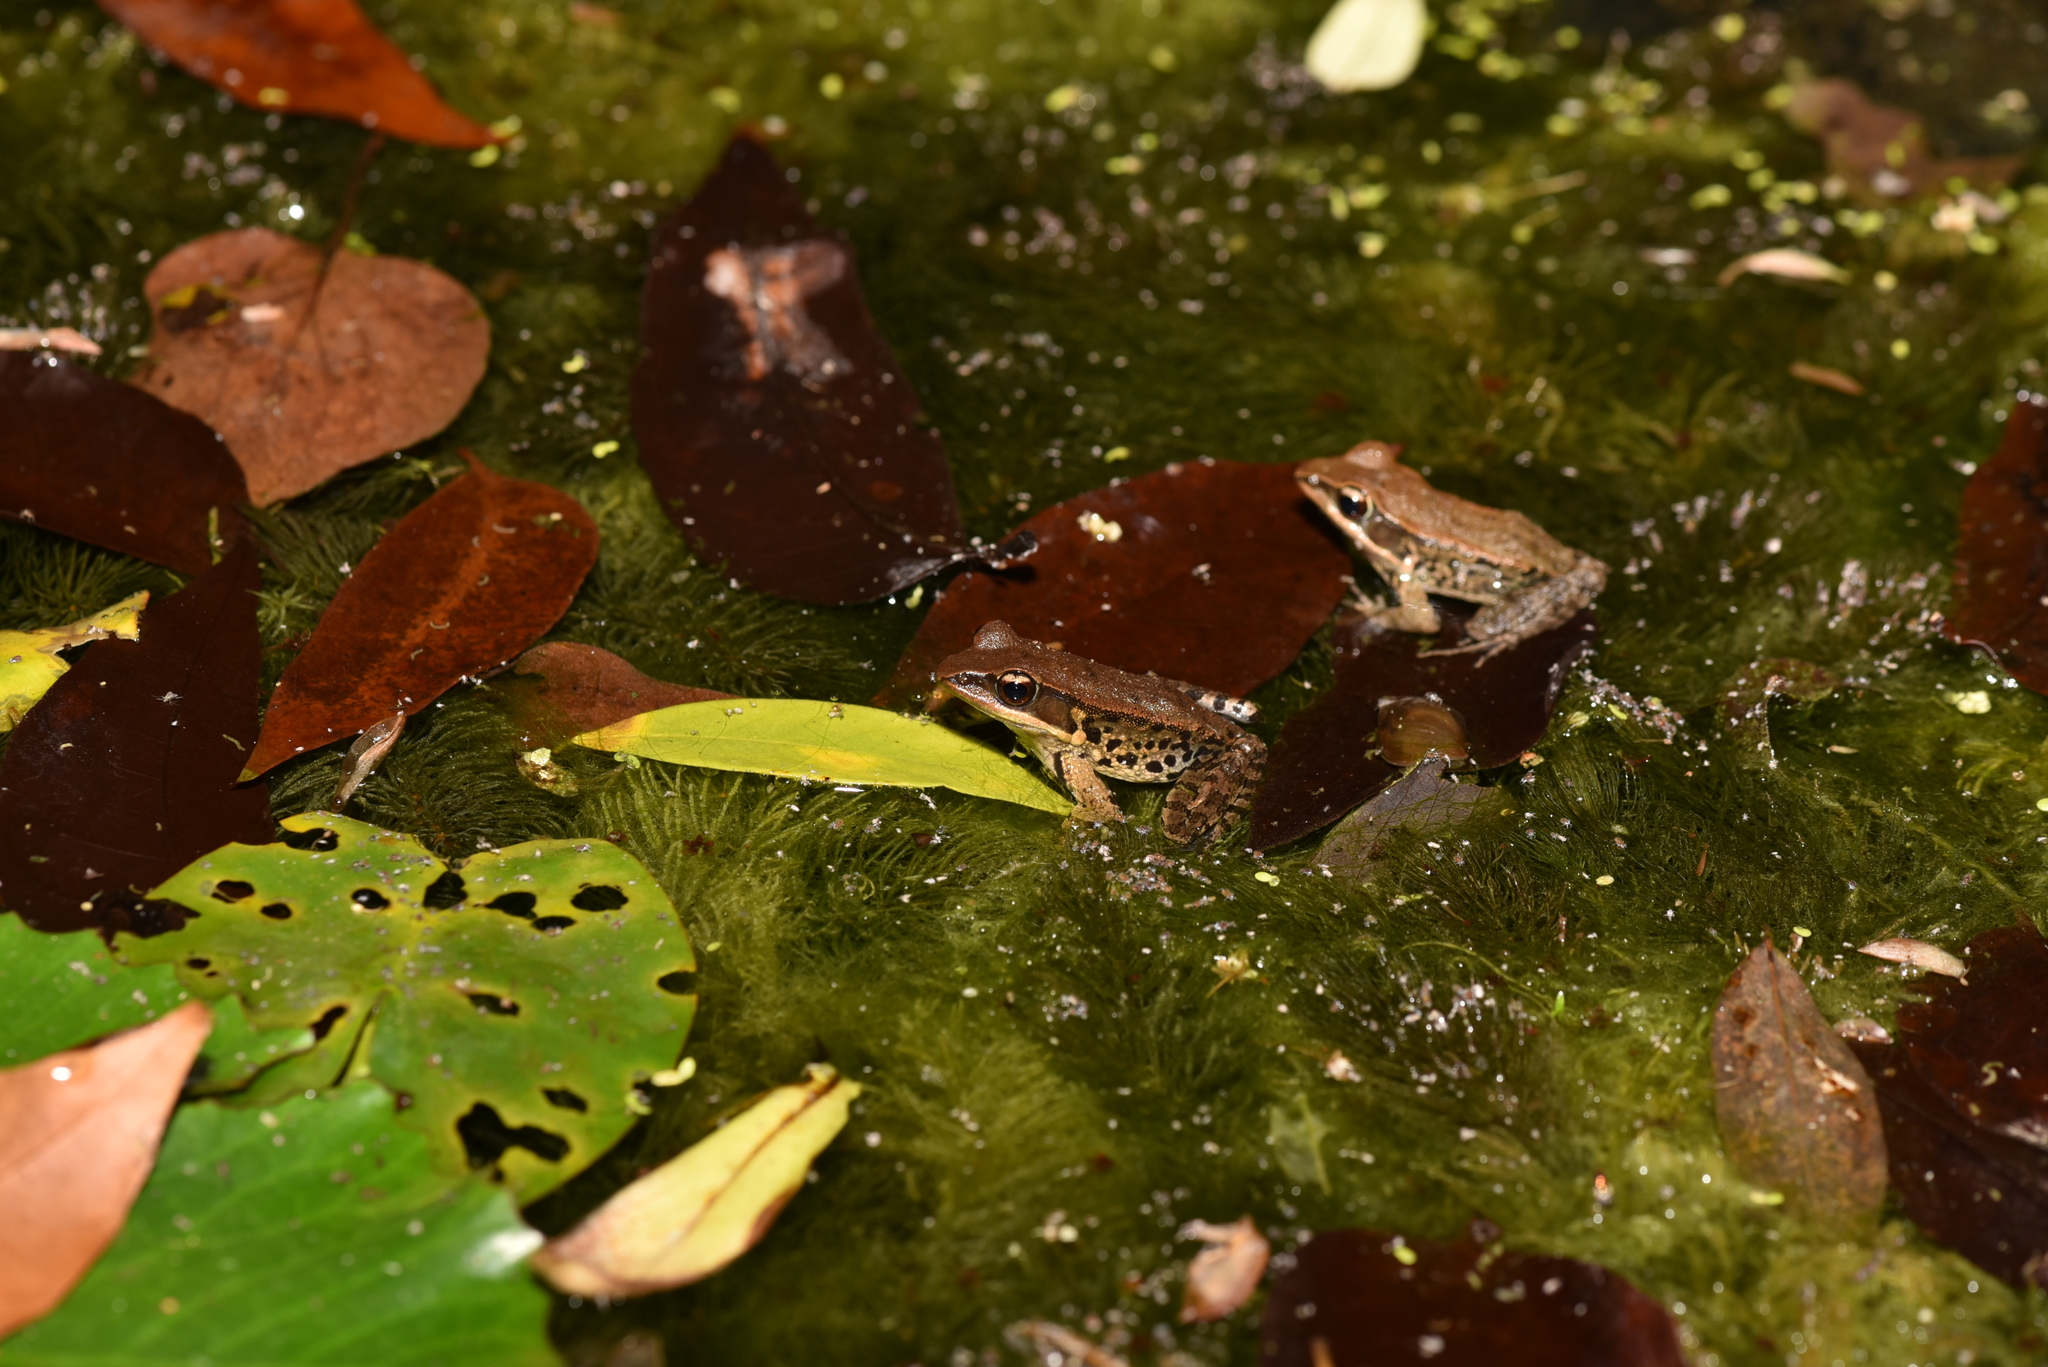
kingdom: Animalia
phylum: Chordata
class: Amphibia
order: Anura
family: Ranidae
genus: Hylarana
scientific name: Hylarana latouchii
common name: Broad-folded frog
